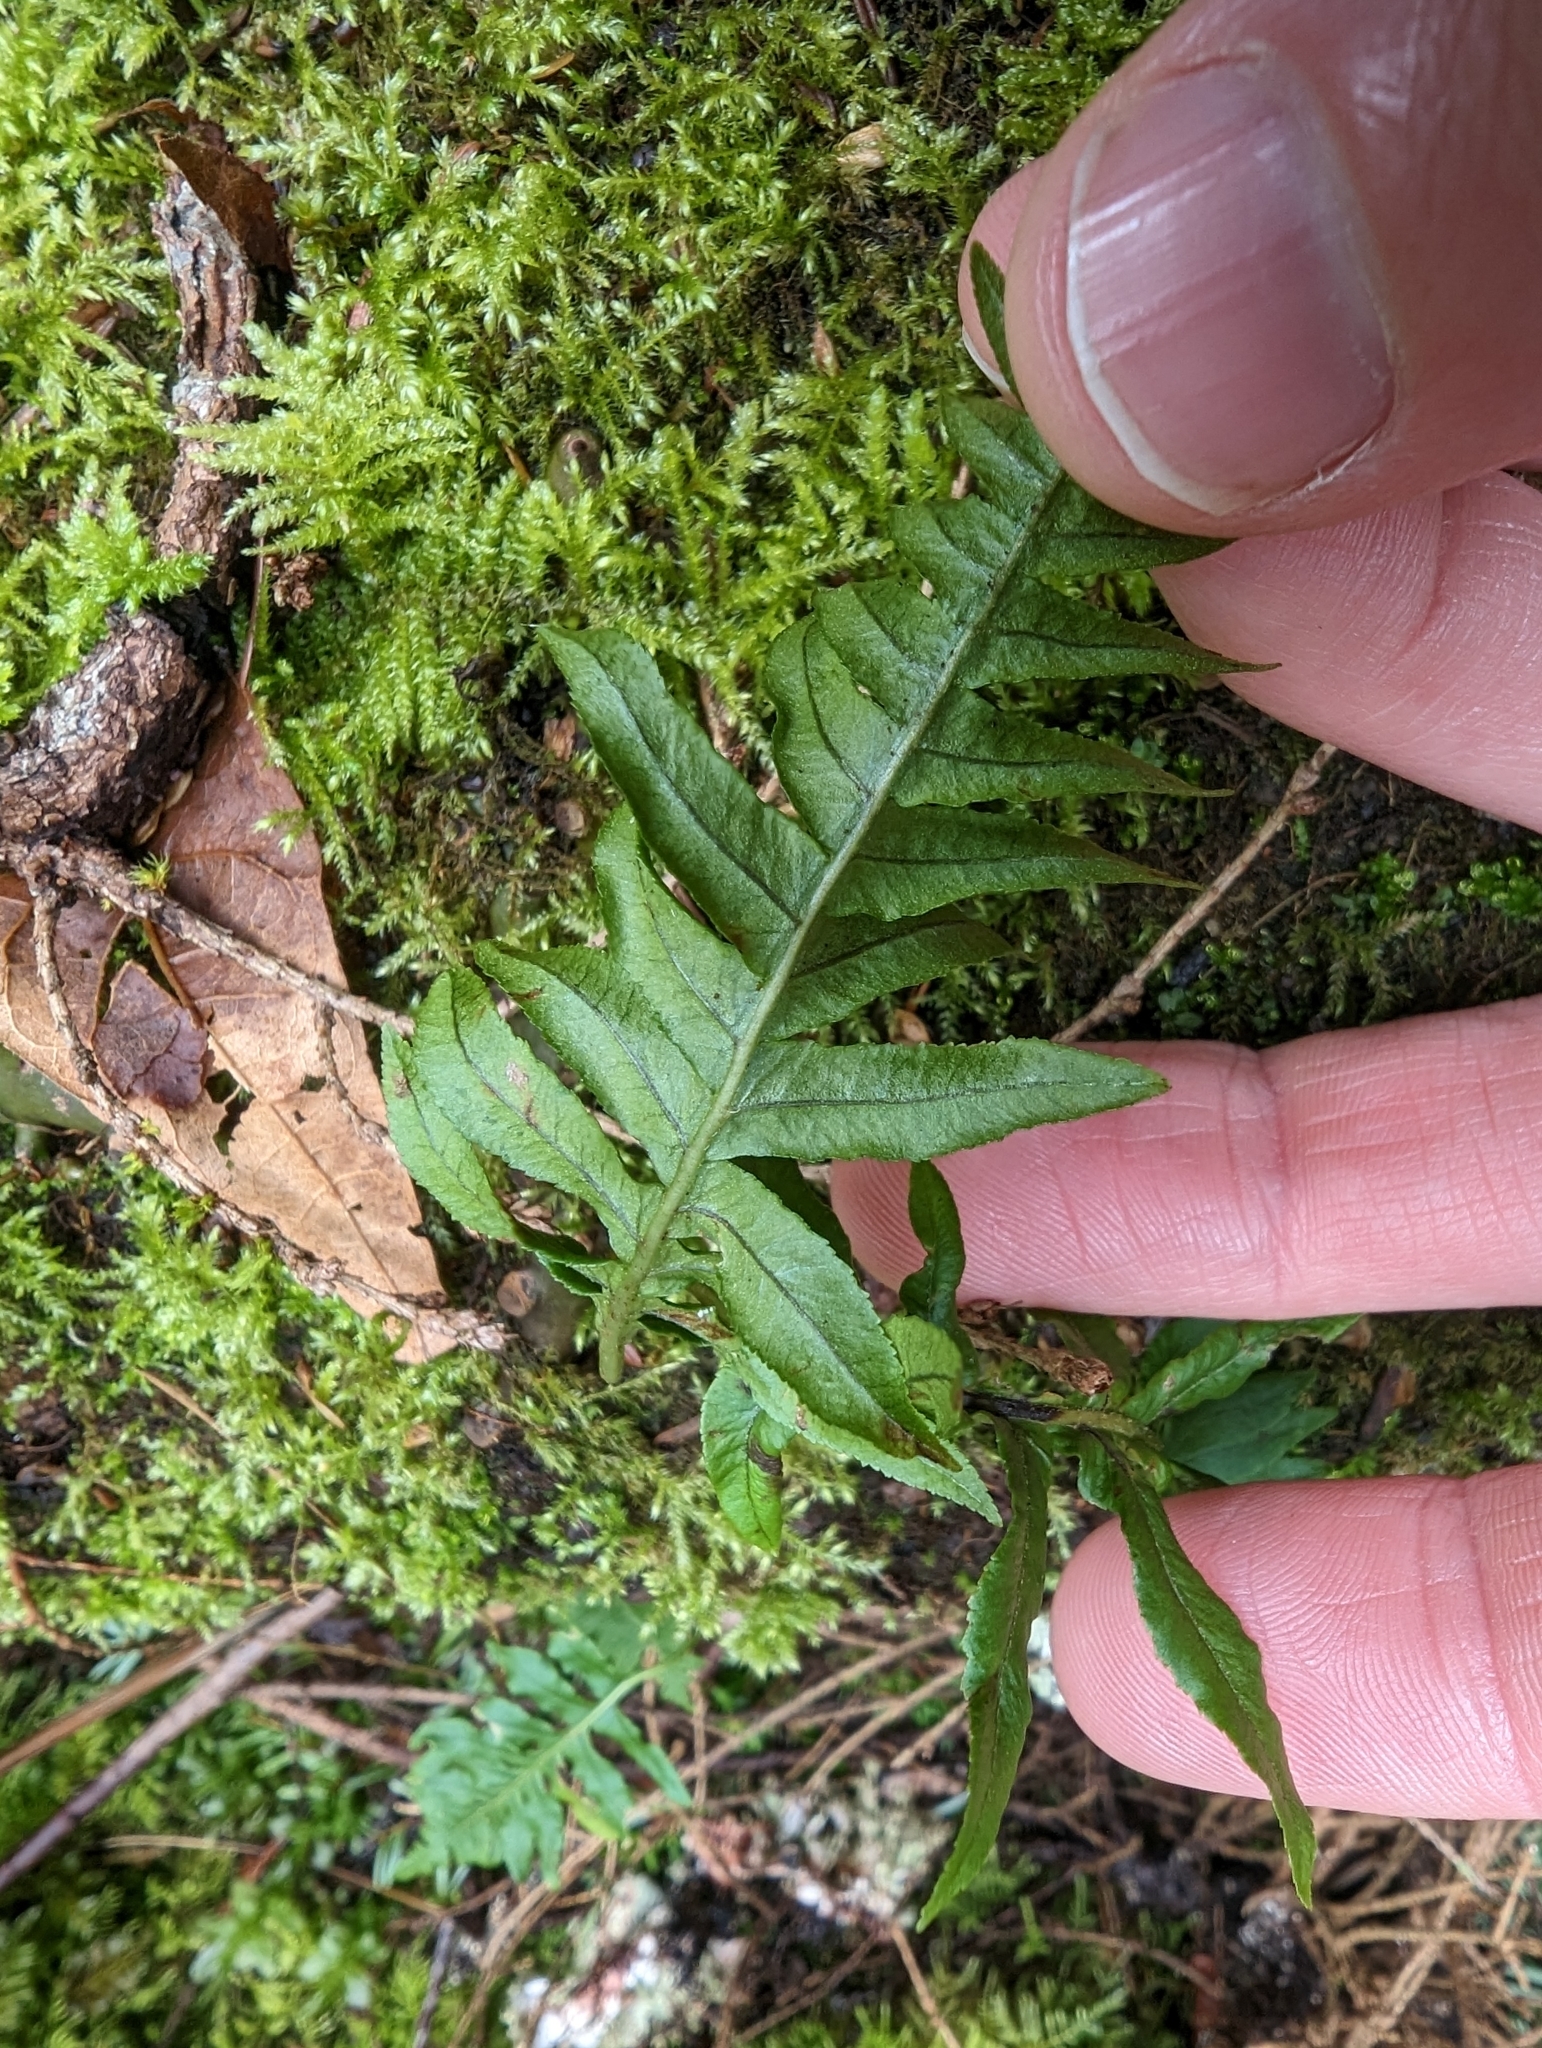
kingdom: Plantae
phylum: Tracheophyta
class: Polypodiopsida
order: Polypodiales
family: Polypodiaceae
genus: Polypodium
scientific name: Polypodium glycyrrhiza
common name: Licorice fern
